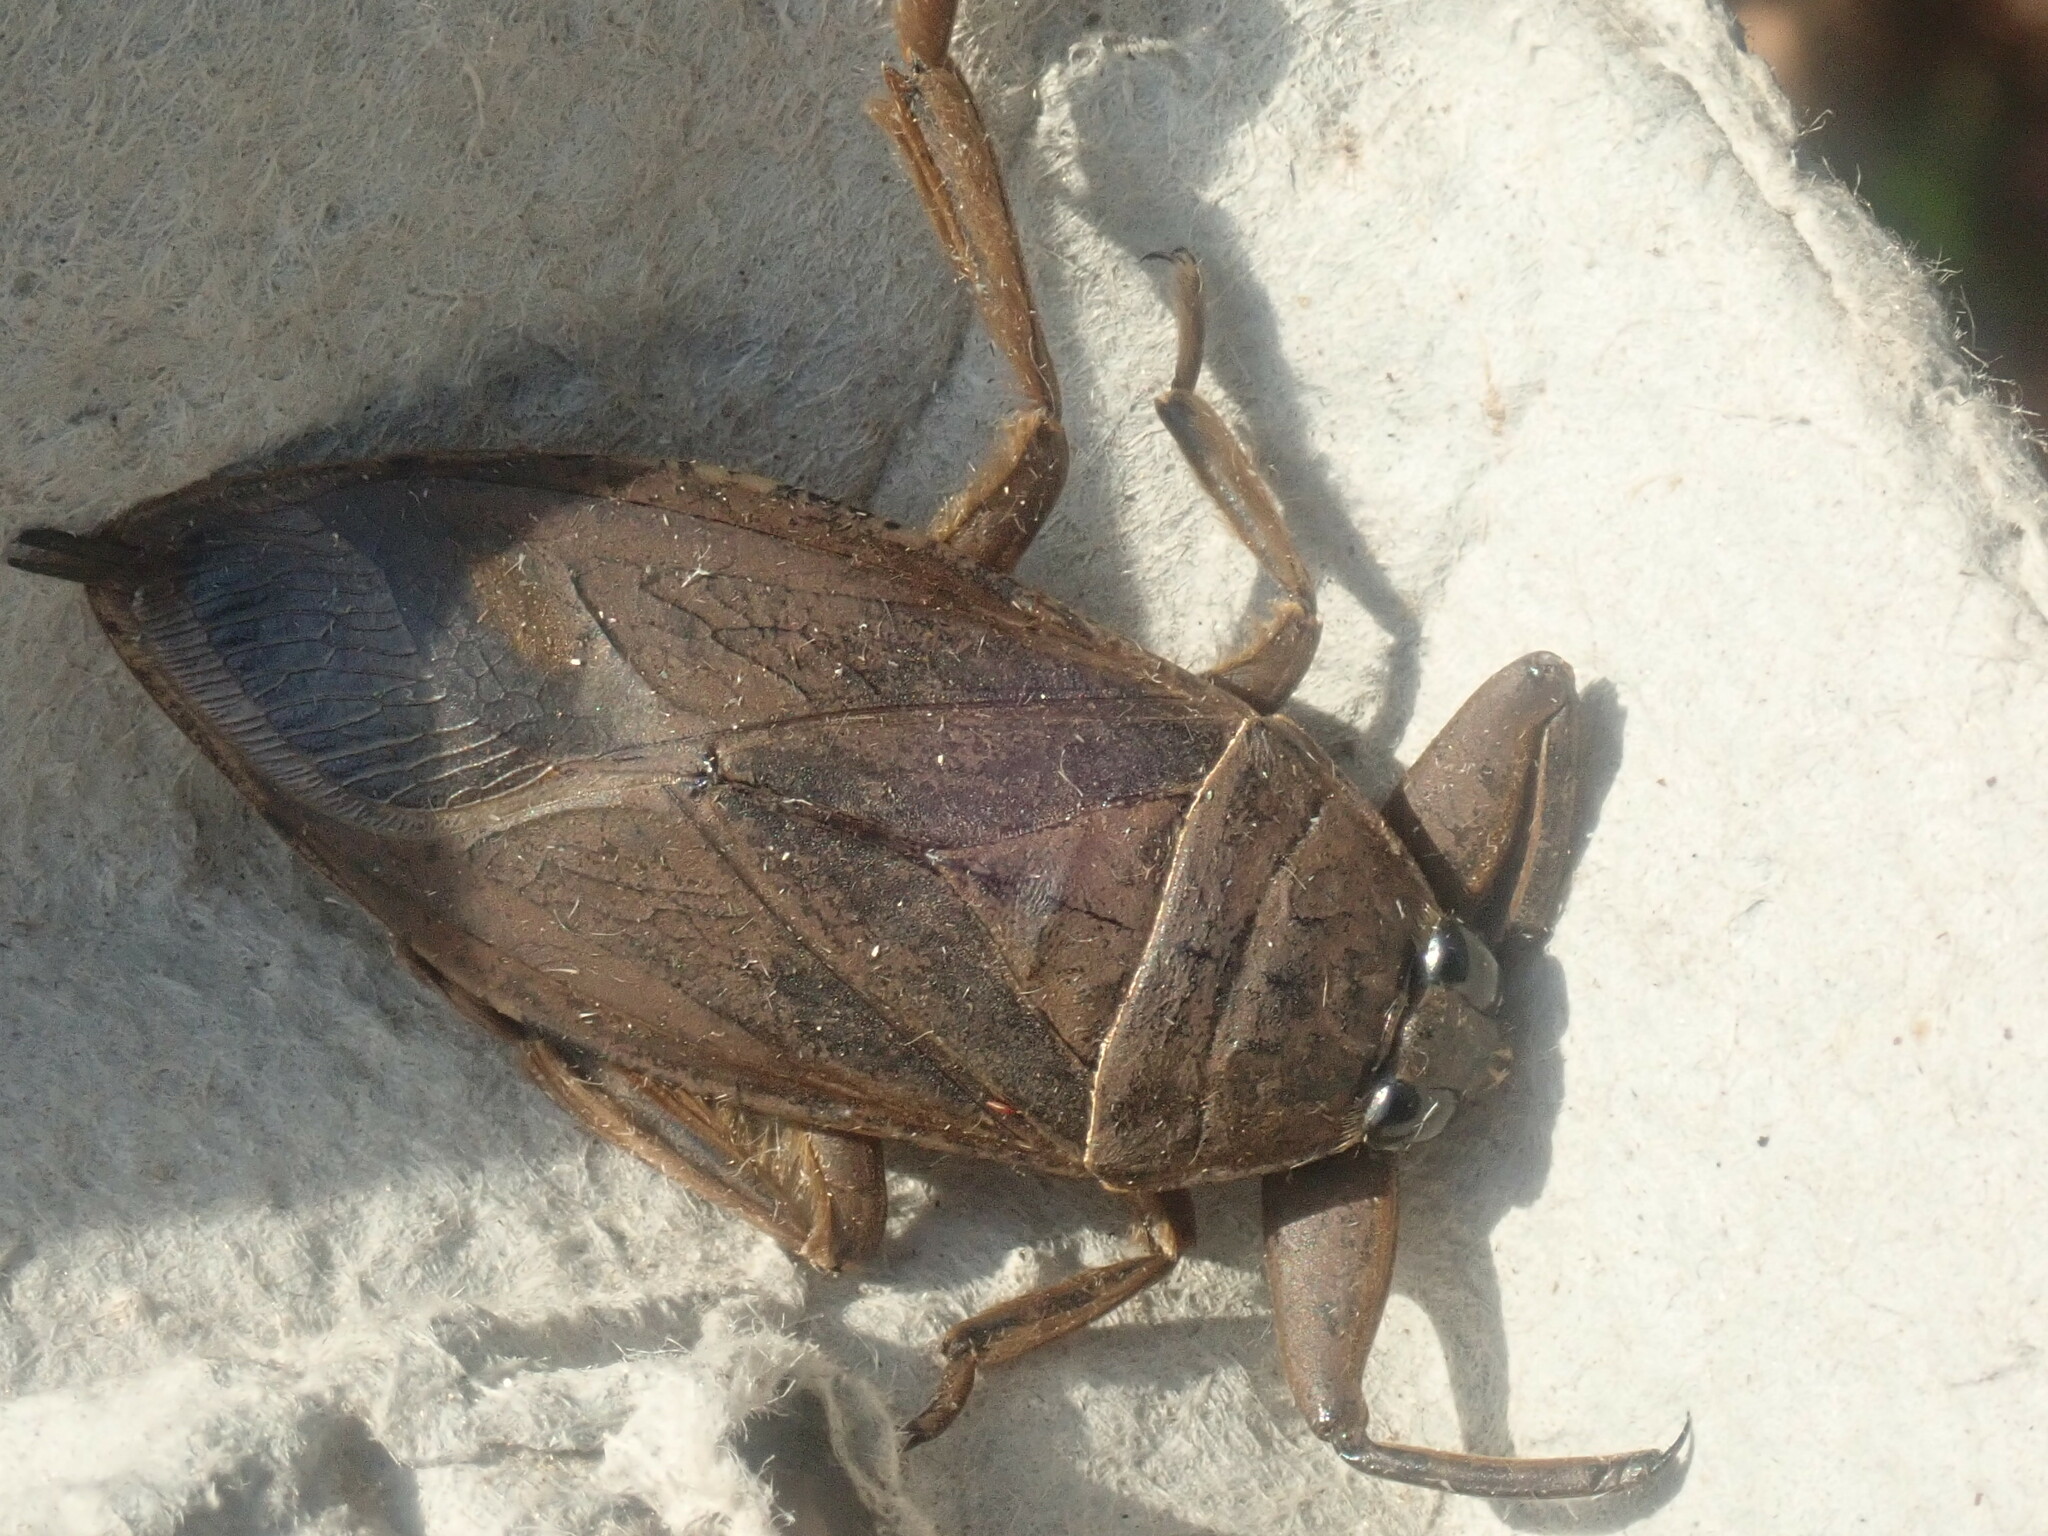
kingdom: Animalia
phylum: Arthropoda
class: Insecta
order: Hemiptera
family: Belostomatidae
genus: Lethocerus
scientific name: Lethocerus americanus
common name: Giant water bug
